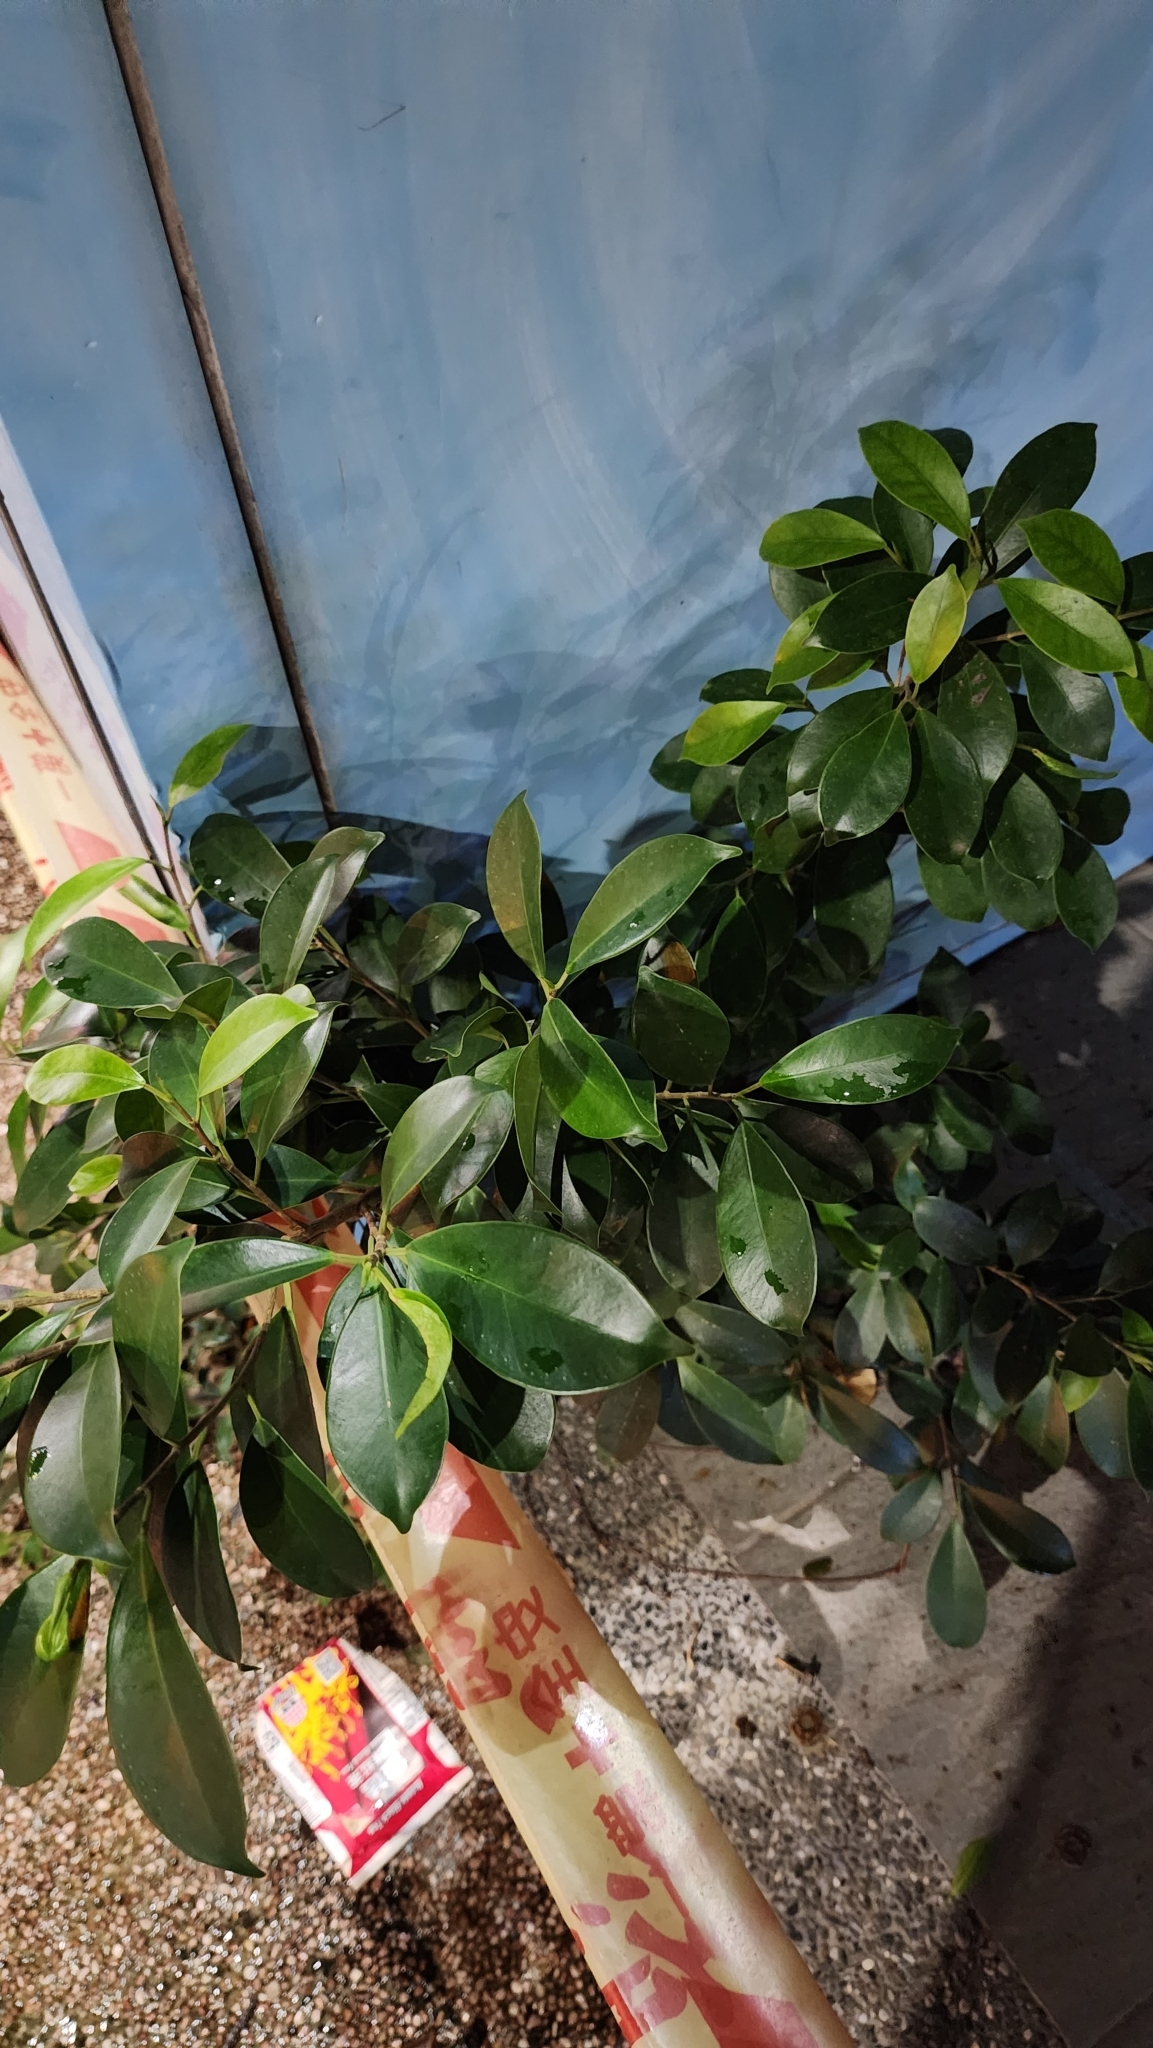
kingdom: Plantae
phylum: Tracheophyta
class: Magnoliopsida
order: Rosales
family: Moraceae
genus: Ficus
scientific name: Ficus microcarpa
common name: Chinese banyan
